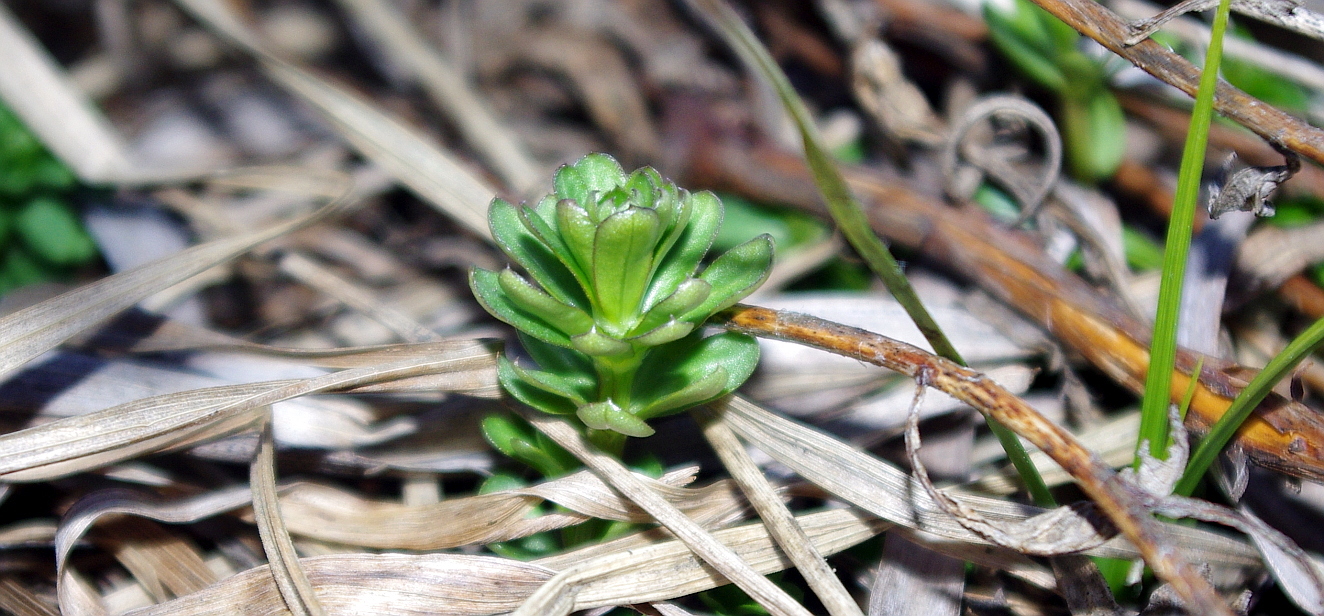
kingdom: Plantae
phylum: Tracheophyta
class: Magnoliopsida
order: Gentianales
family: Rubiaceae
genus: Galium
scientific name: Galium mollugo
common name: Hedge bedstraw
